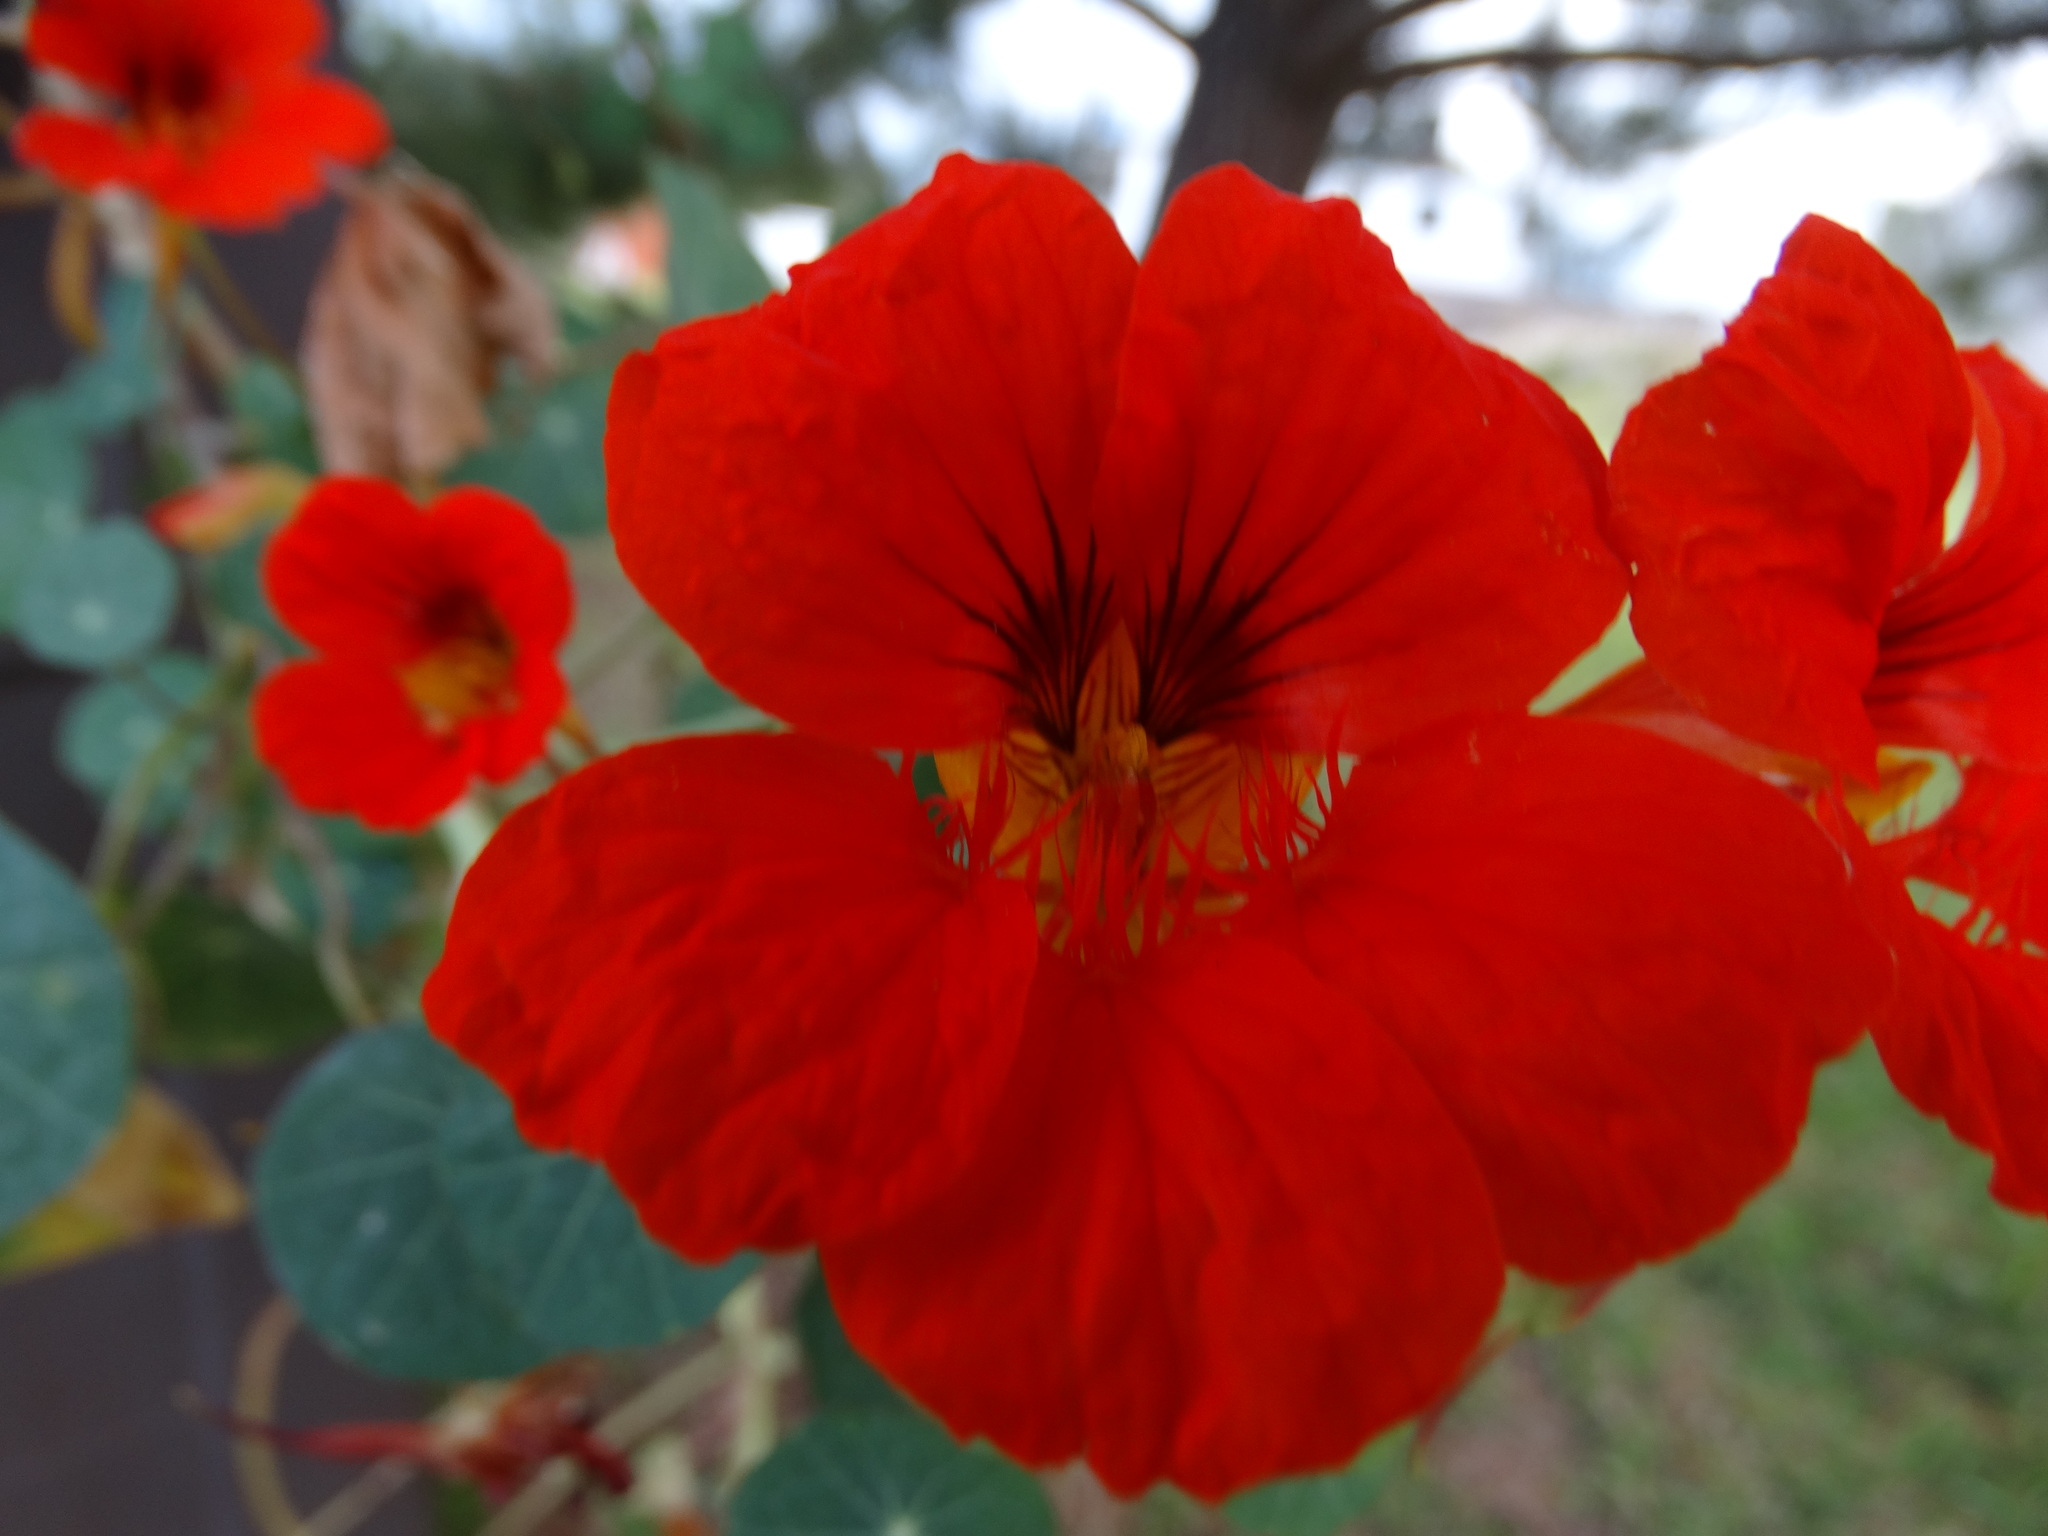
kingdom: Plantae
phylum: Tracheophyta
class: Magnoliopsida
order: Brassicales
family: Tropaeolaceae
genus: Tropaeolum
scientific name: Tropaeolum majus
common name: Nasturtium
